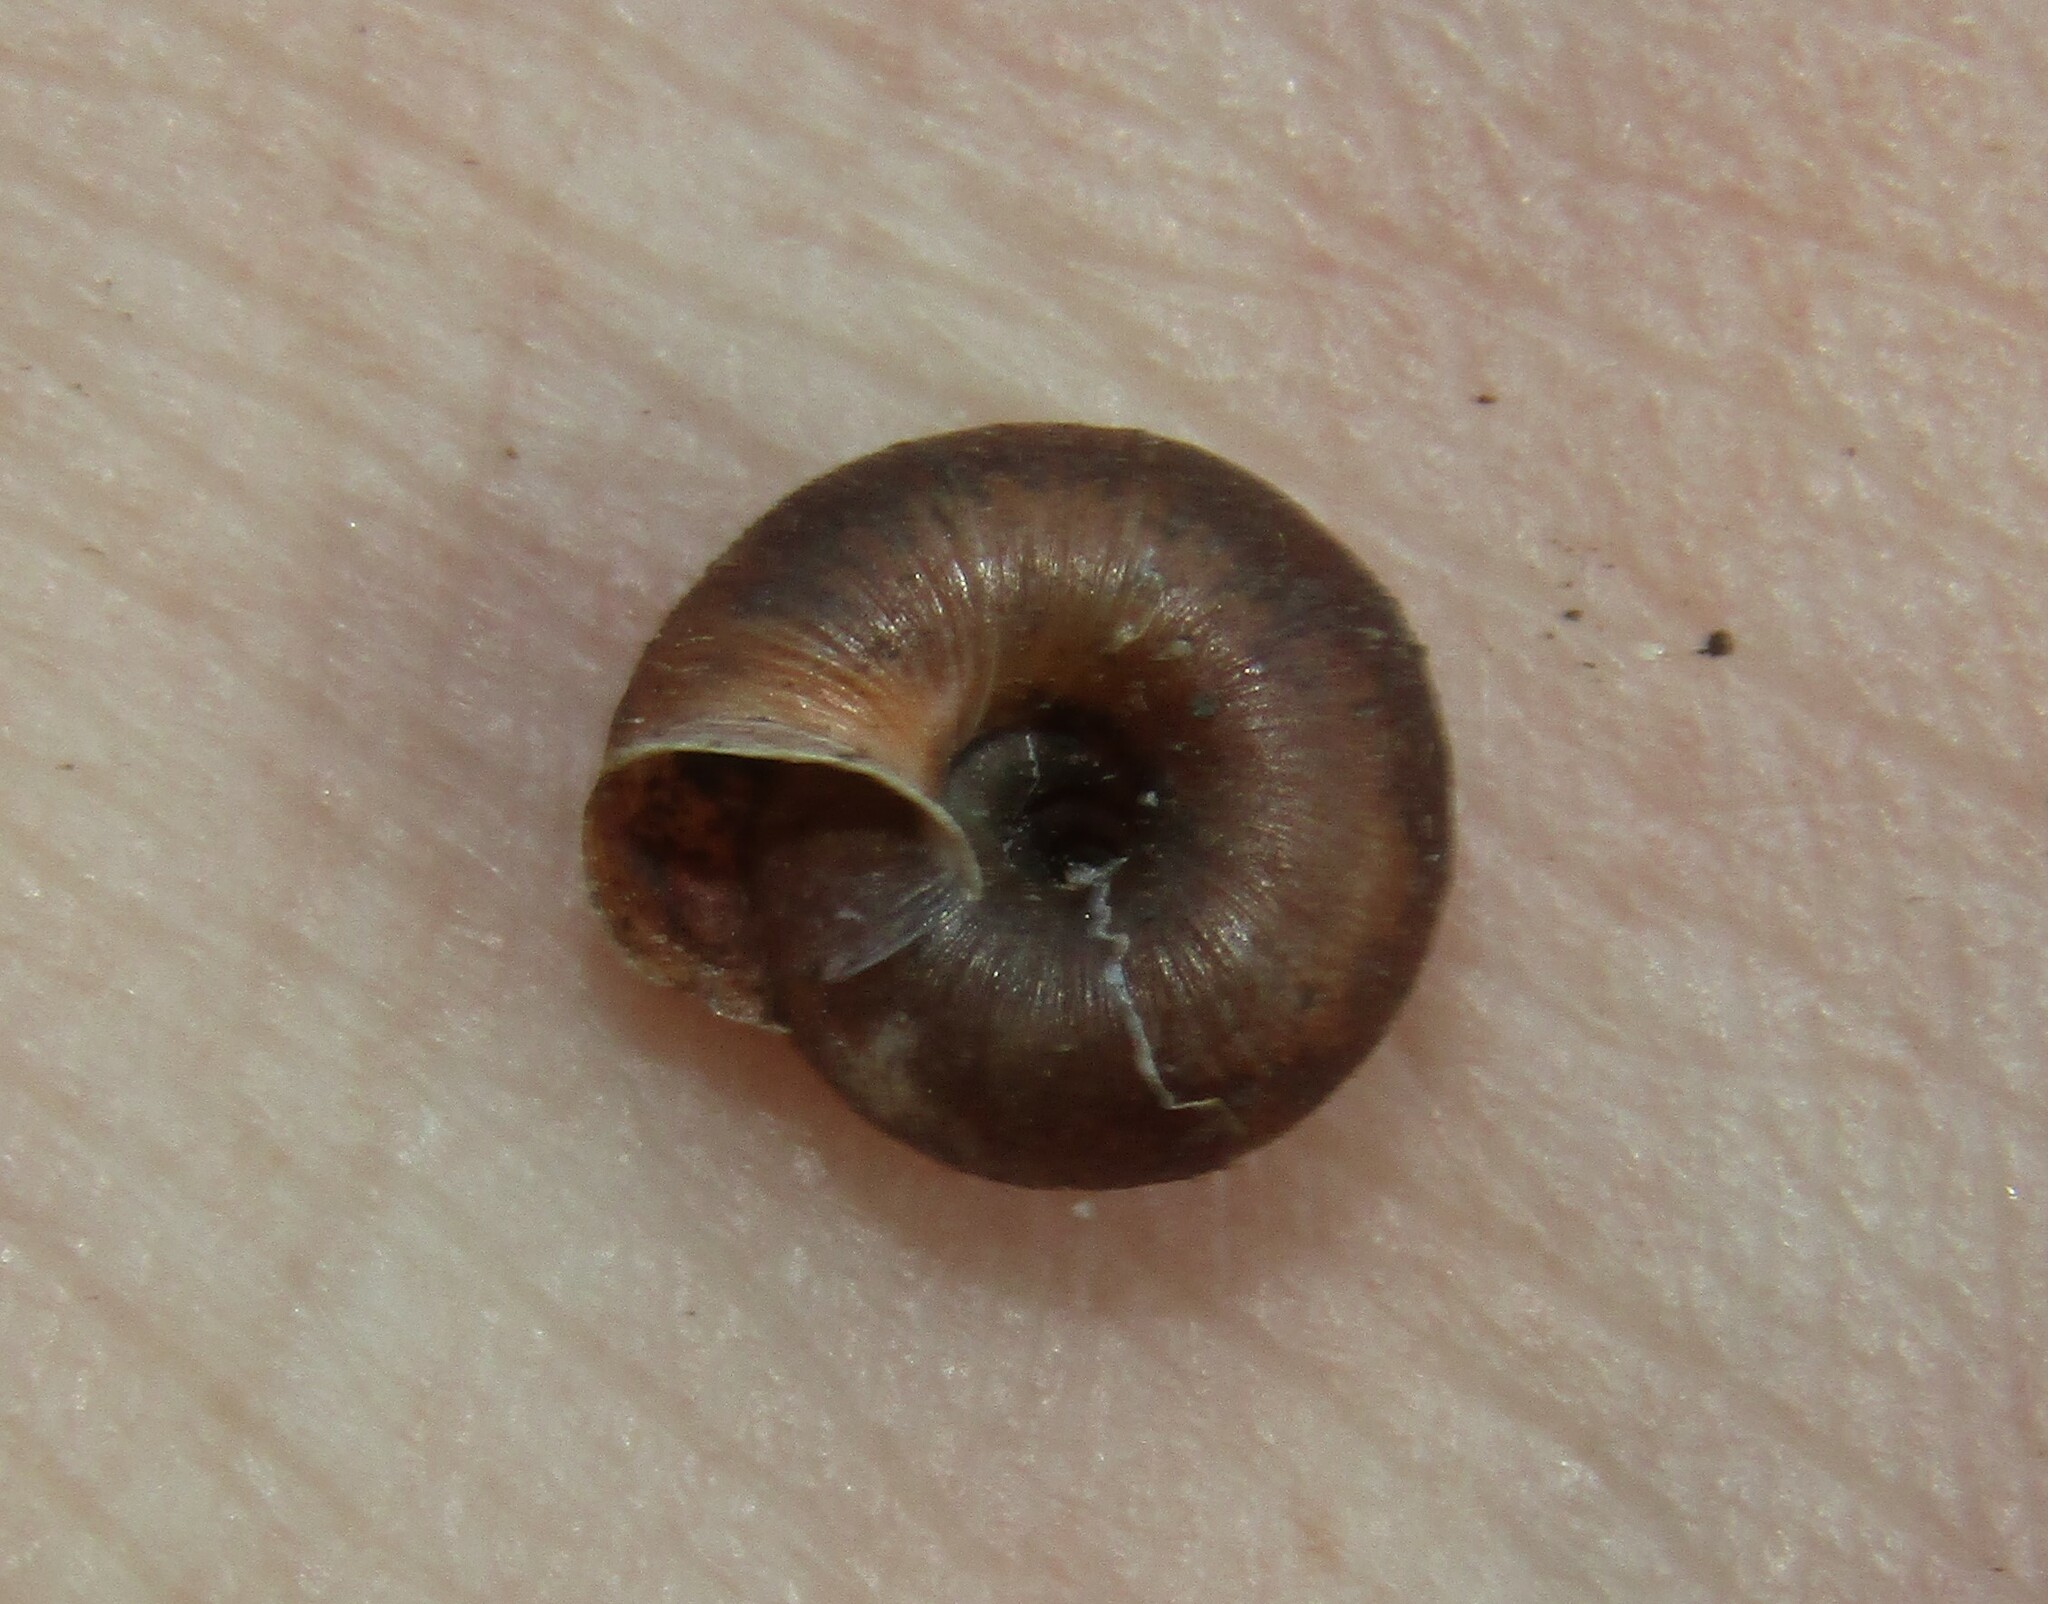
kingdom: Animalia
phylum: Mollusca
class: Gastropoda
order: Stylommatophora
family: Hygromiidae
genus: Trochulus
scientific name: Trochulus hispidus
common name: Hairy snail
